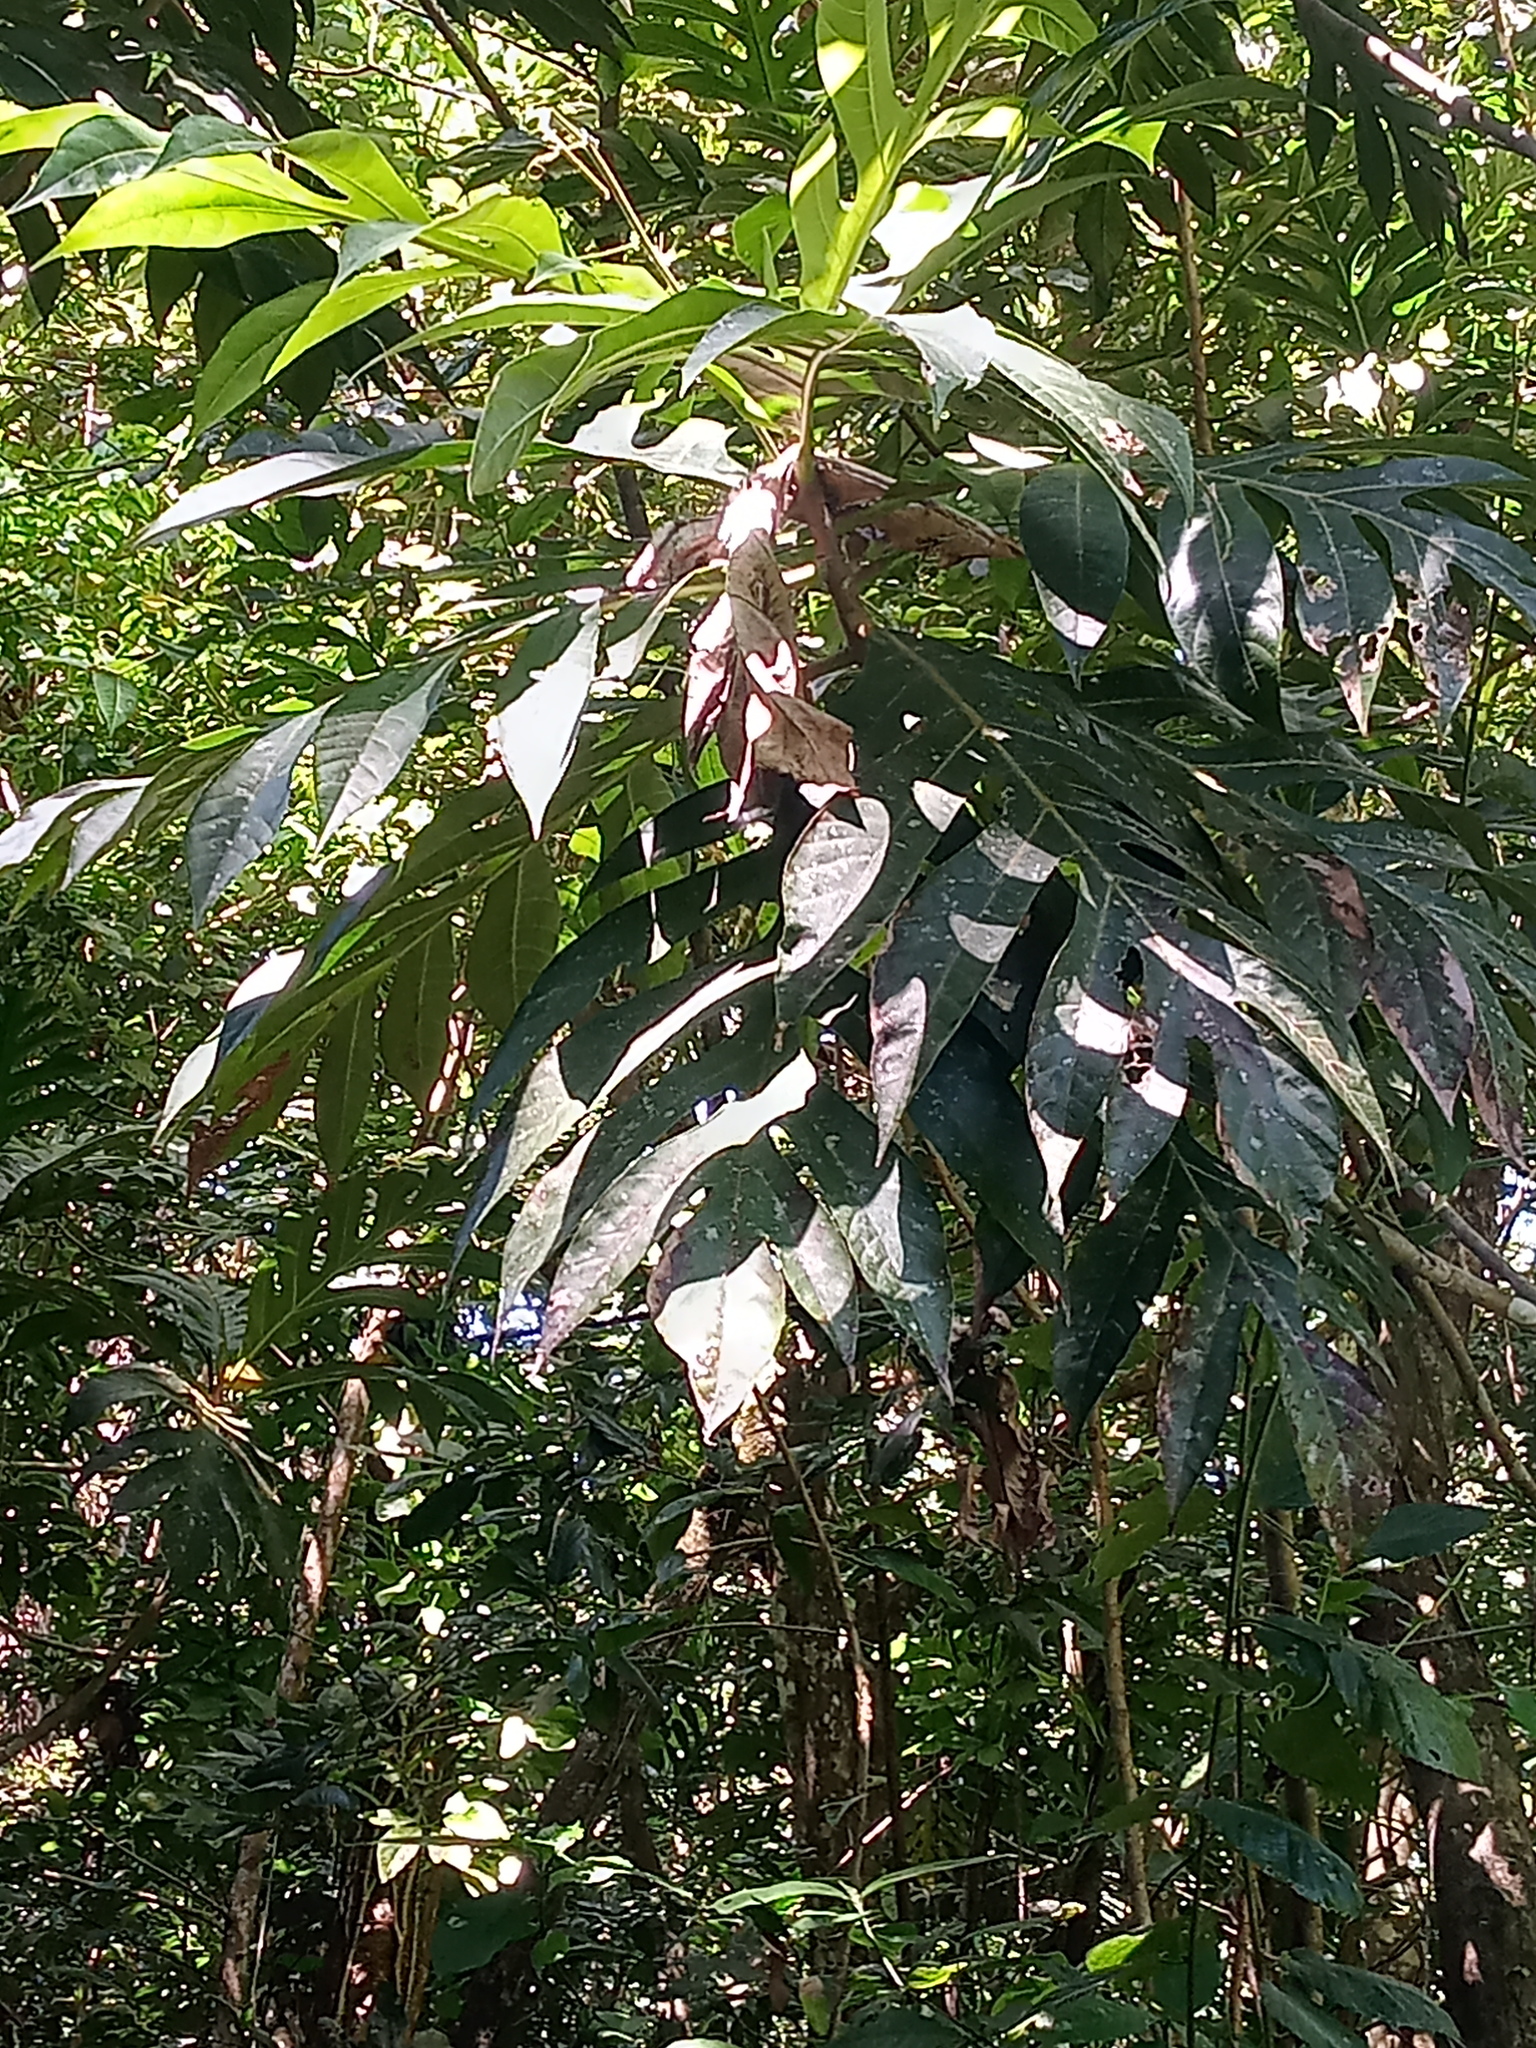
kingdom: Plantae
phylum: Tracheophyta
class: Magnoliopsida
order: Rosales
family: Moraceae
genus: Artocarpus
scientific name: Artocarpus altilis
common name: Breadfruit
